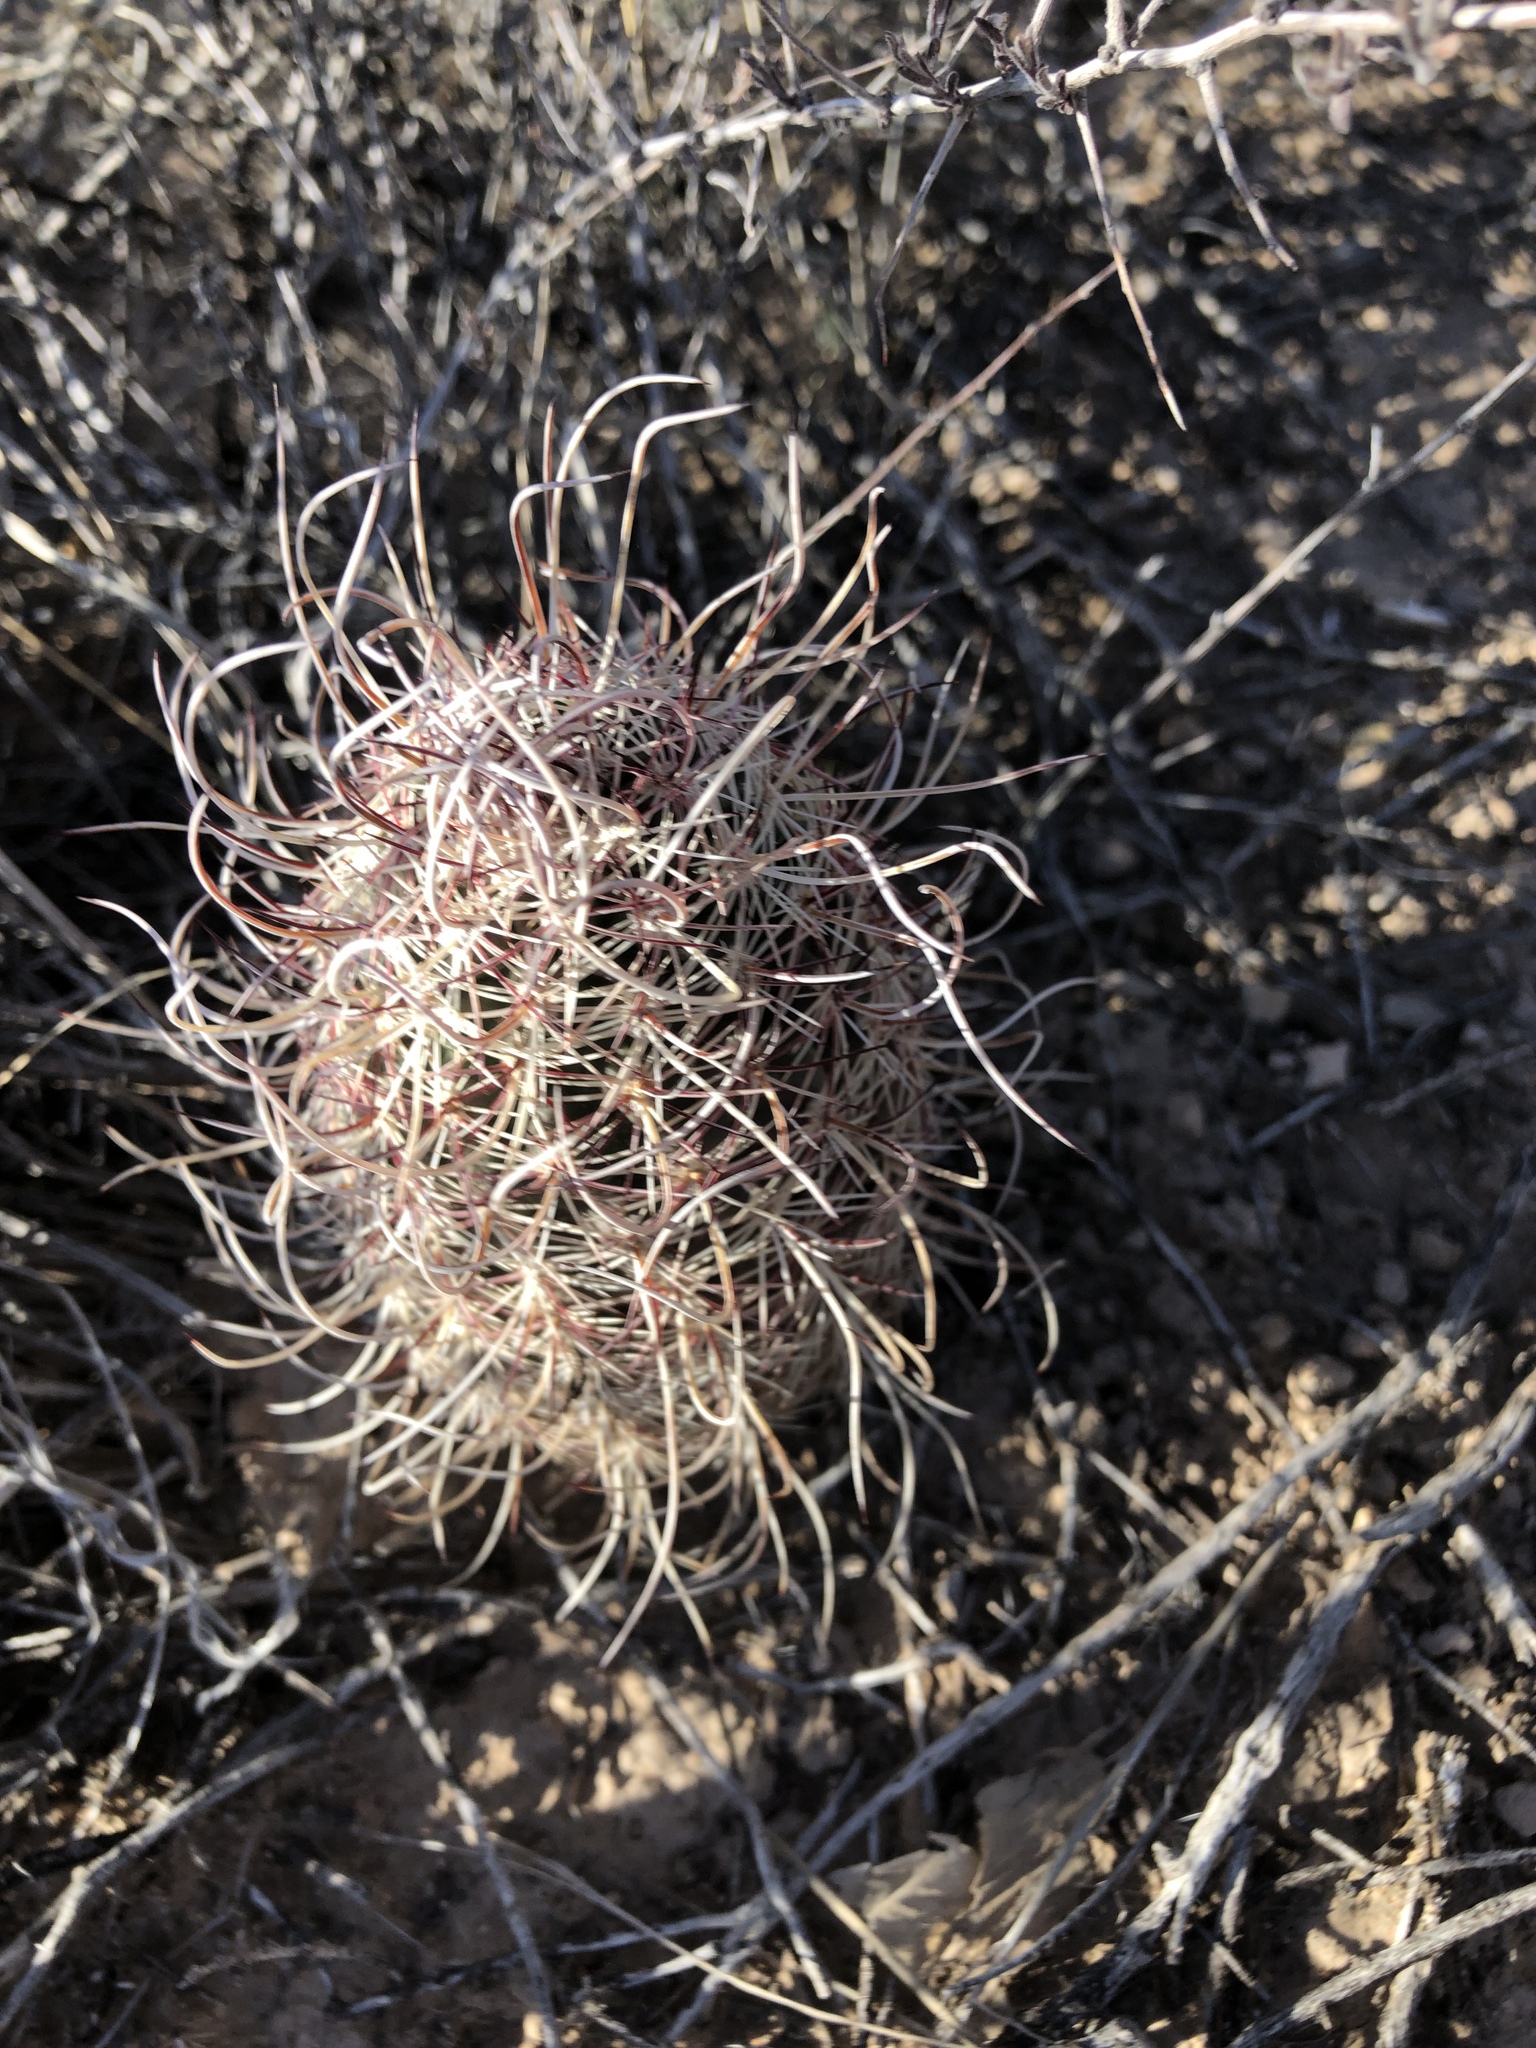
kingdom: Plantae
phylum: Tracheophyta
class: Magnoliopsida
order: Caryophyllales
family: Cactaceae
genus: Echinocereus
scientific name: Echinocereus viridiflorus
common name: Nylon hedgehog cactus
